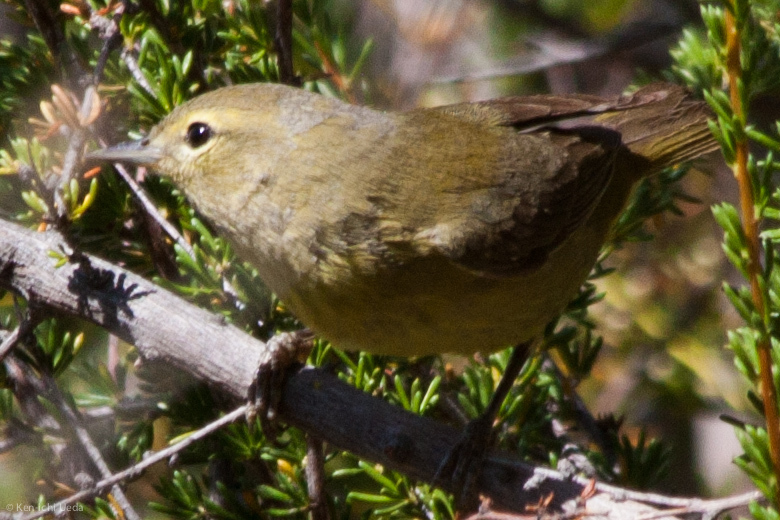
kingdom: Animalia
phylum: Chordata
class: Aves
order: Passeriformes
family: Parulidae
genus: Leiothlypis
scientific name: Leiothlypis celata
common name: Orange-crowned warbler
